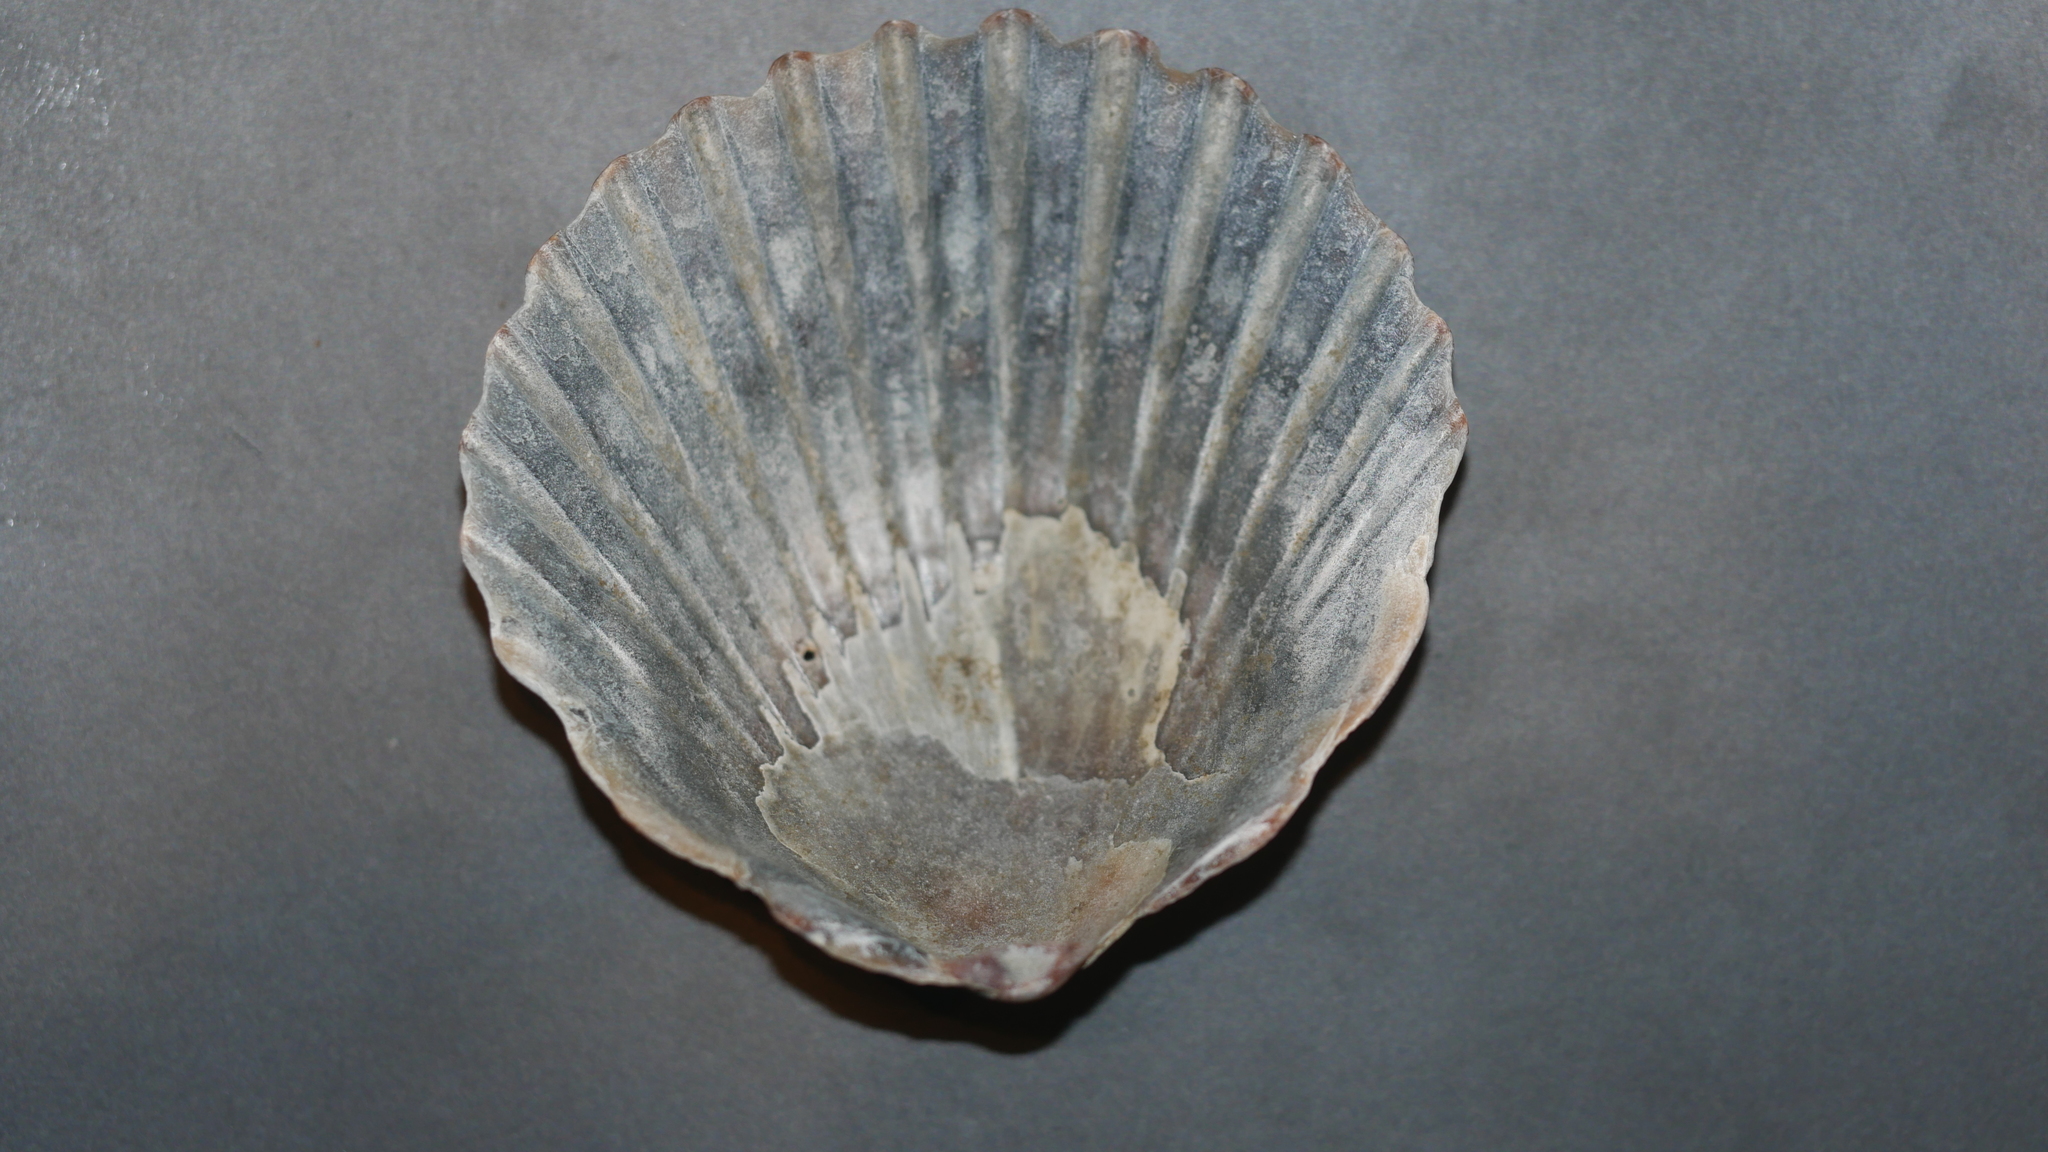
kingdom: Animalia
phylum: Mollusca
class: Bivalvia
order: Pectinida
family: Pectinidae
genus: Argopecten
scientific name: Argopecten irradians
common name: Atlantic bay scallop
